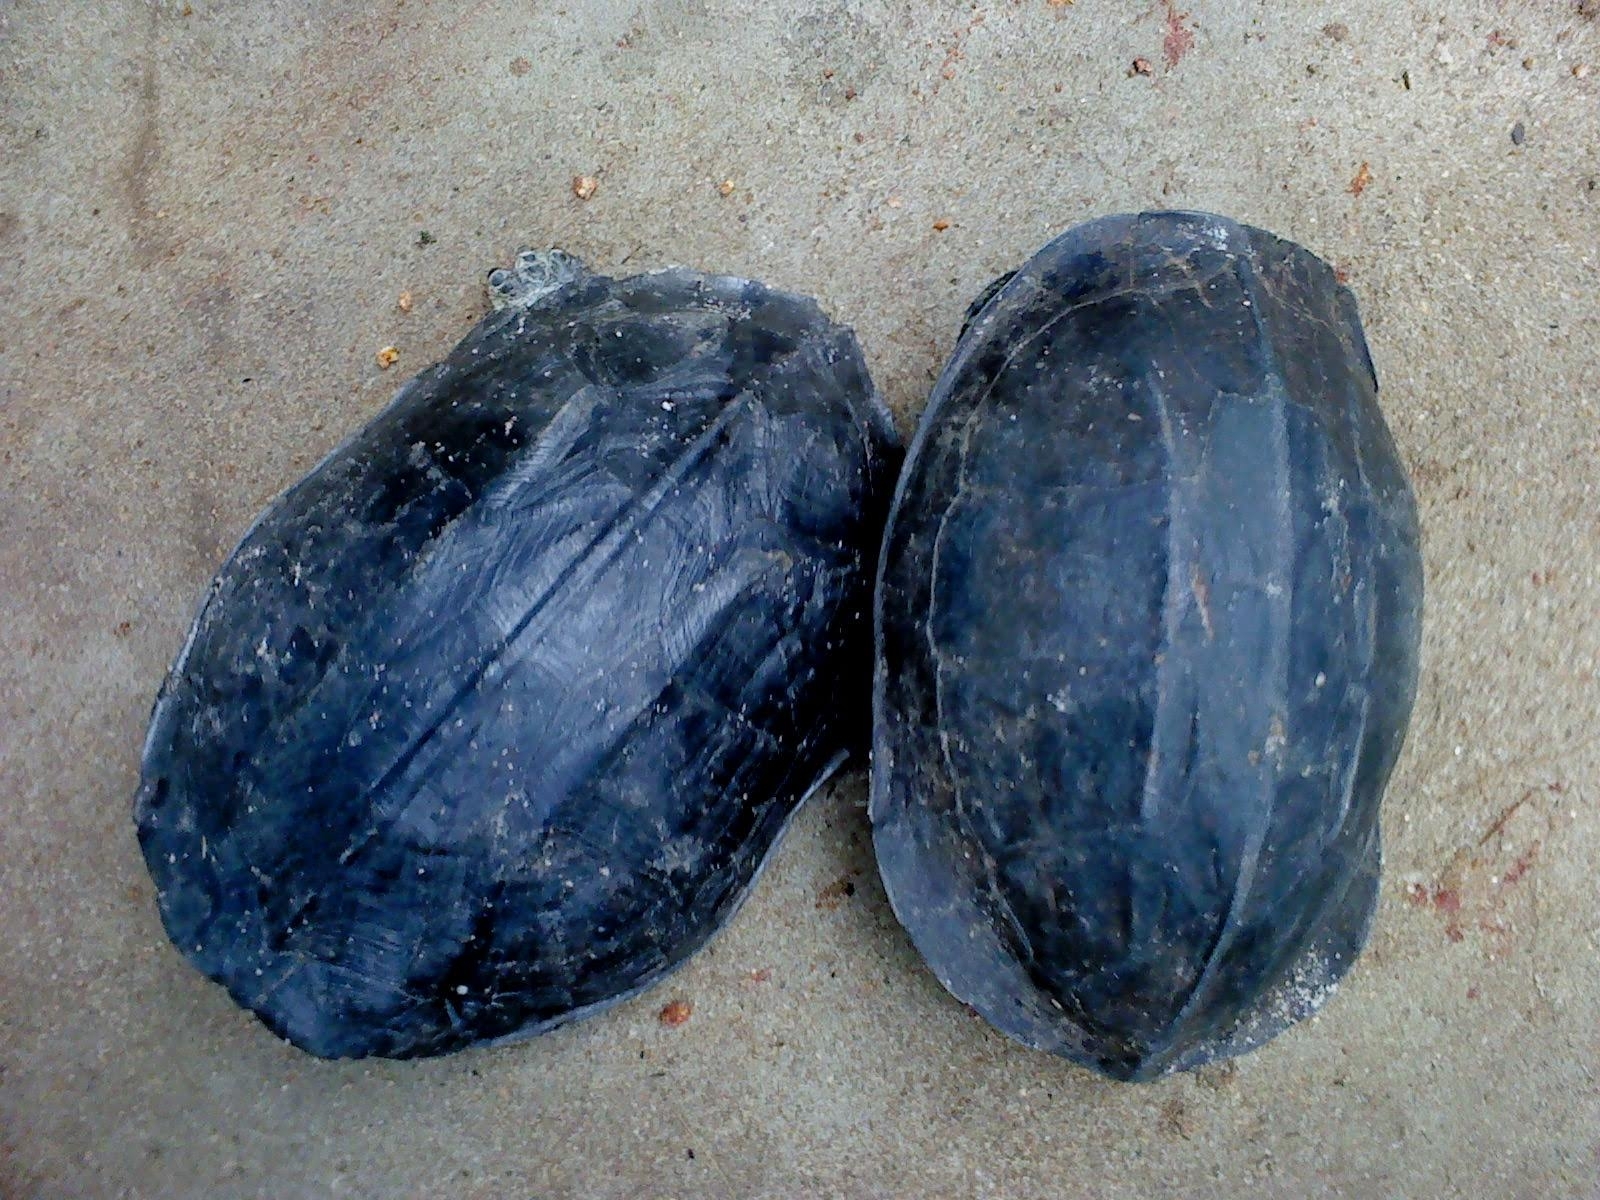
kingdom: Animalia
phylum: Chordata
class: Testudines
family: Geoemydidae
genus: Melanochelys
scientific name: Melanochelys trijuga
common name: Indian black turtle
